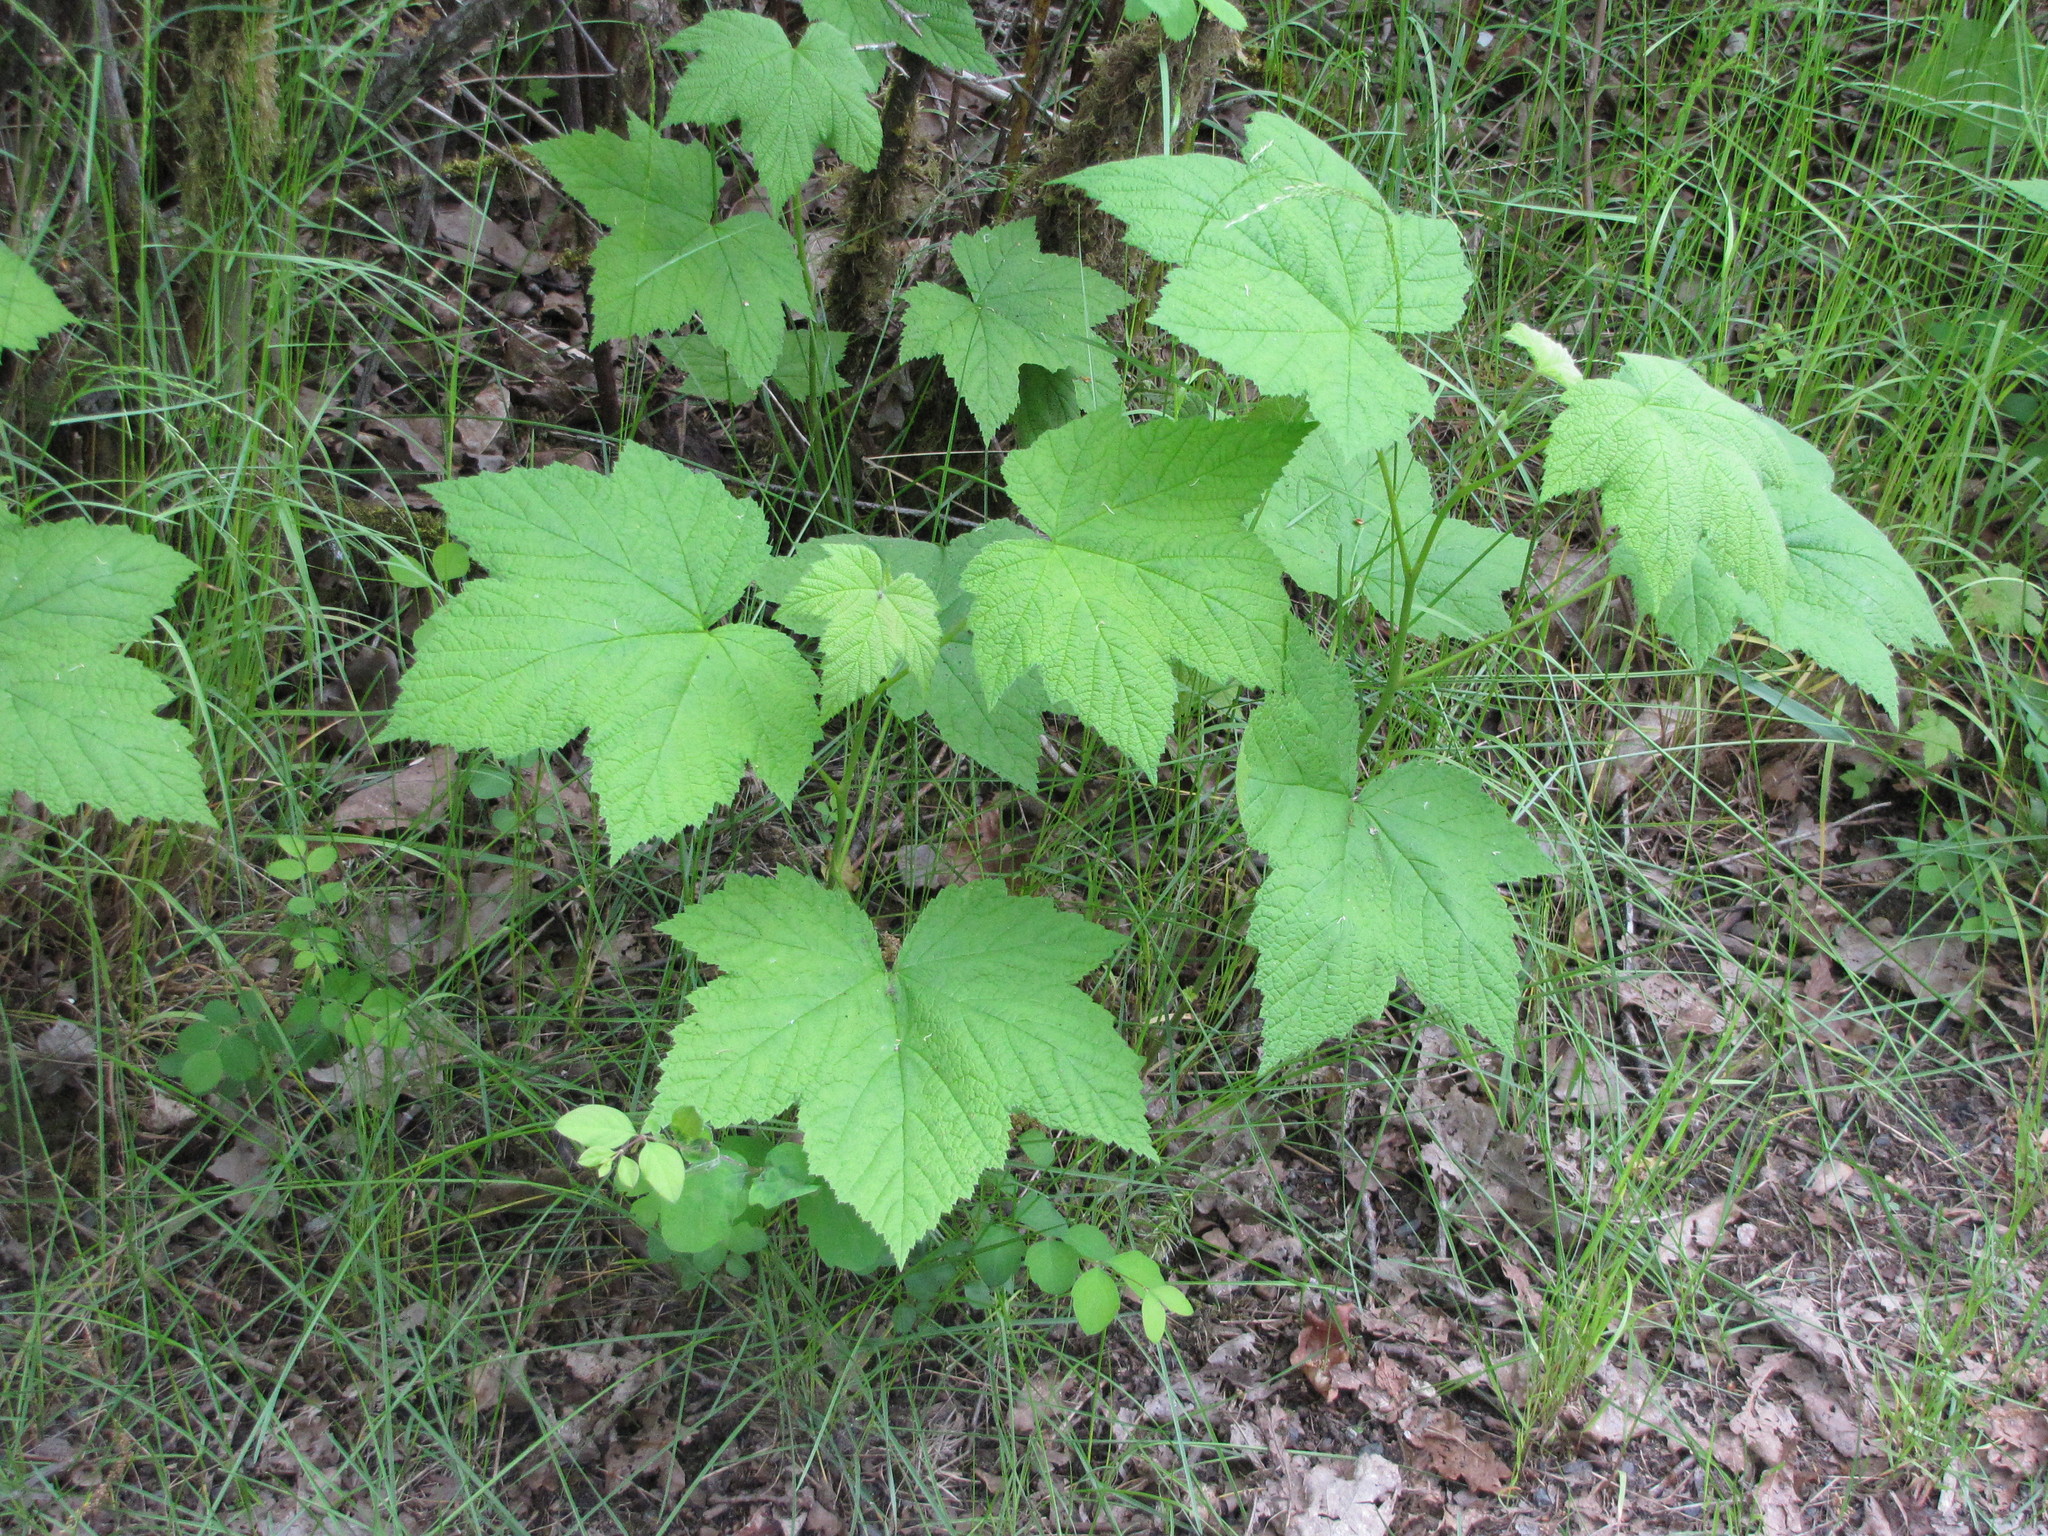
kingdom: Plantae
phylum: Tracheophyta
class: Magnoliopsida
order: Rosales
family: Rosaceae
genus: Rubus
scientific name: Rubus parviflorus
